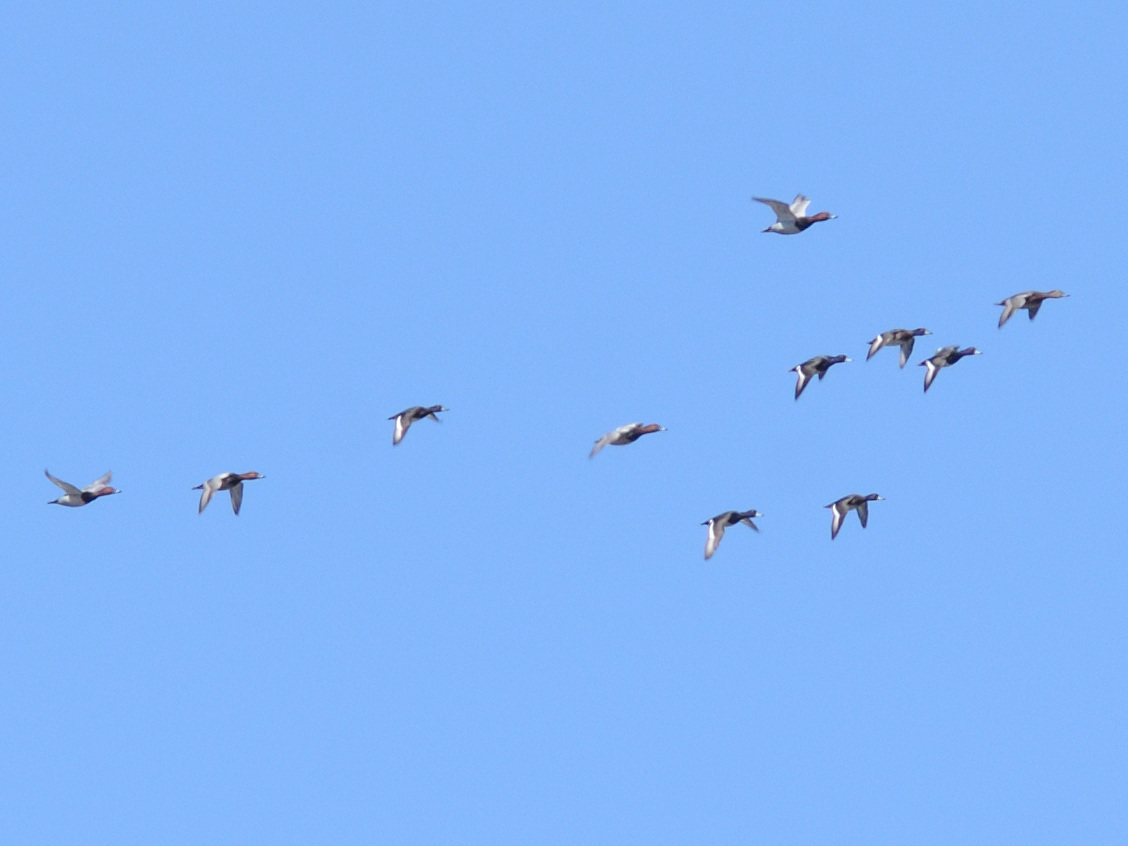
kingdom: Animalia
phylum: Chordata
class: Aves
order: Anseriformes
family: Anatidae
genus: Aythya
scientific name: Aythya ferina
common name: Common pochard
